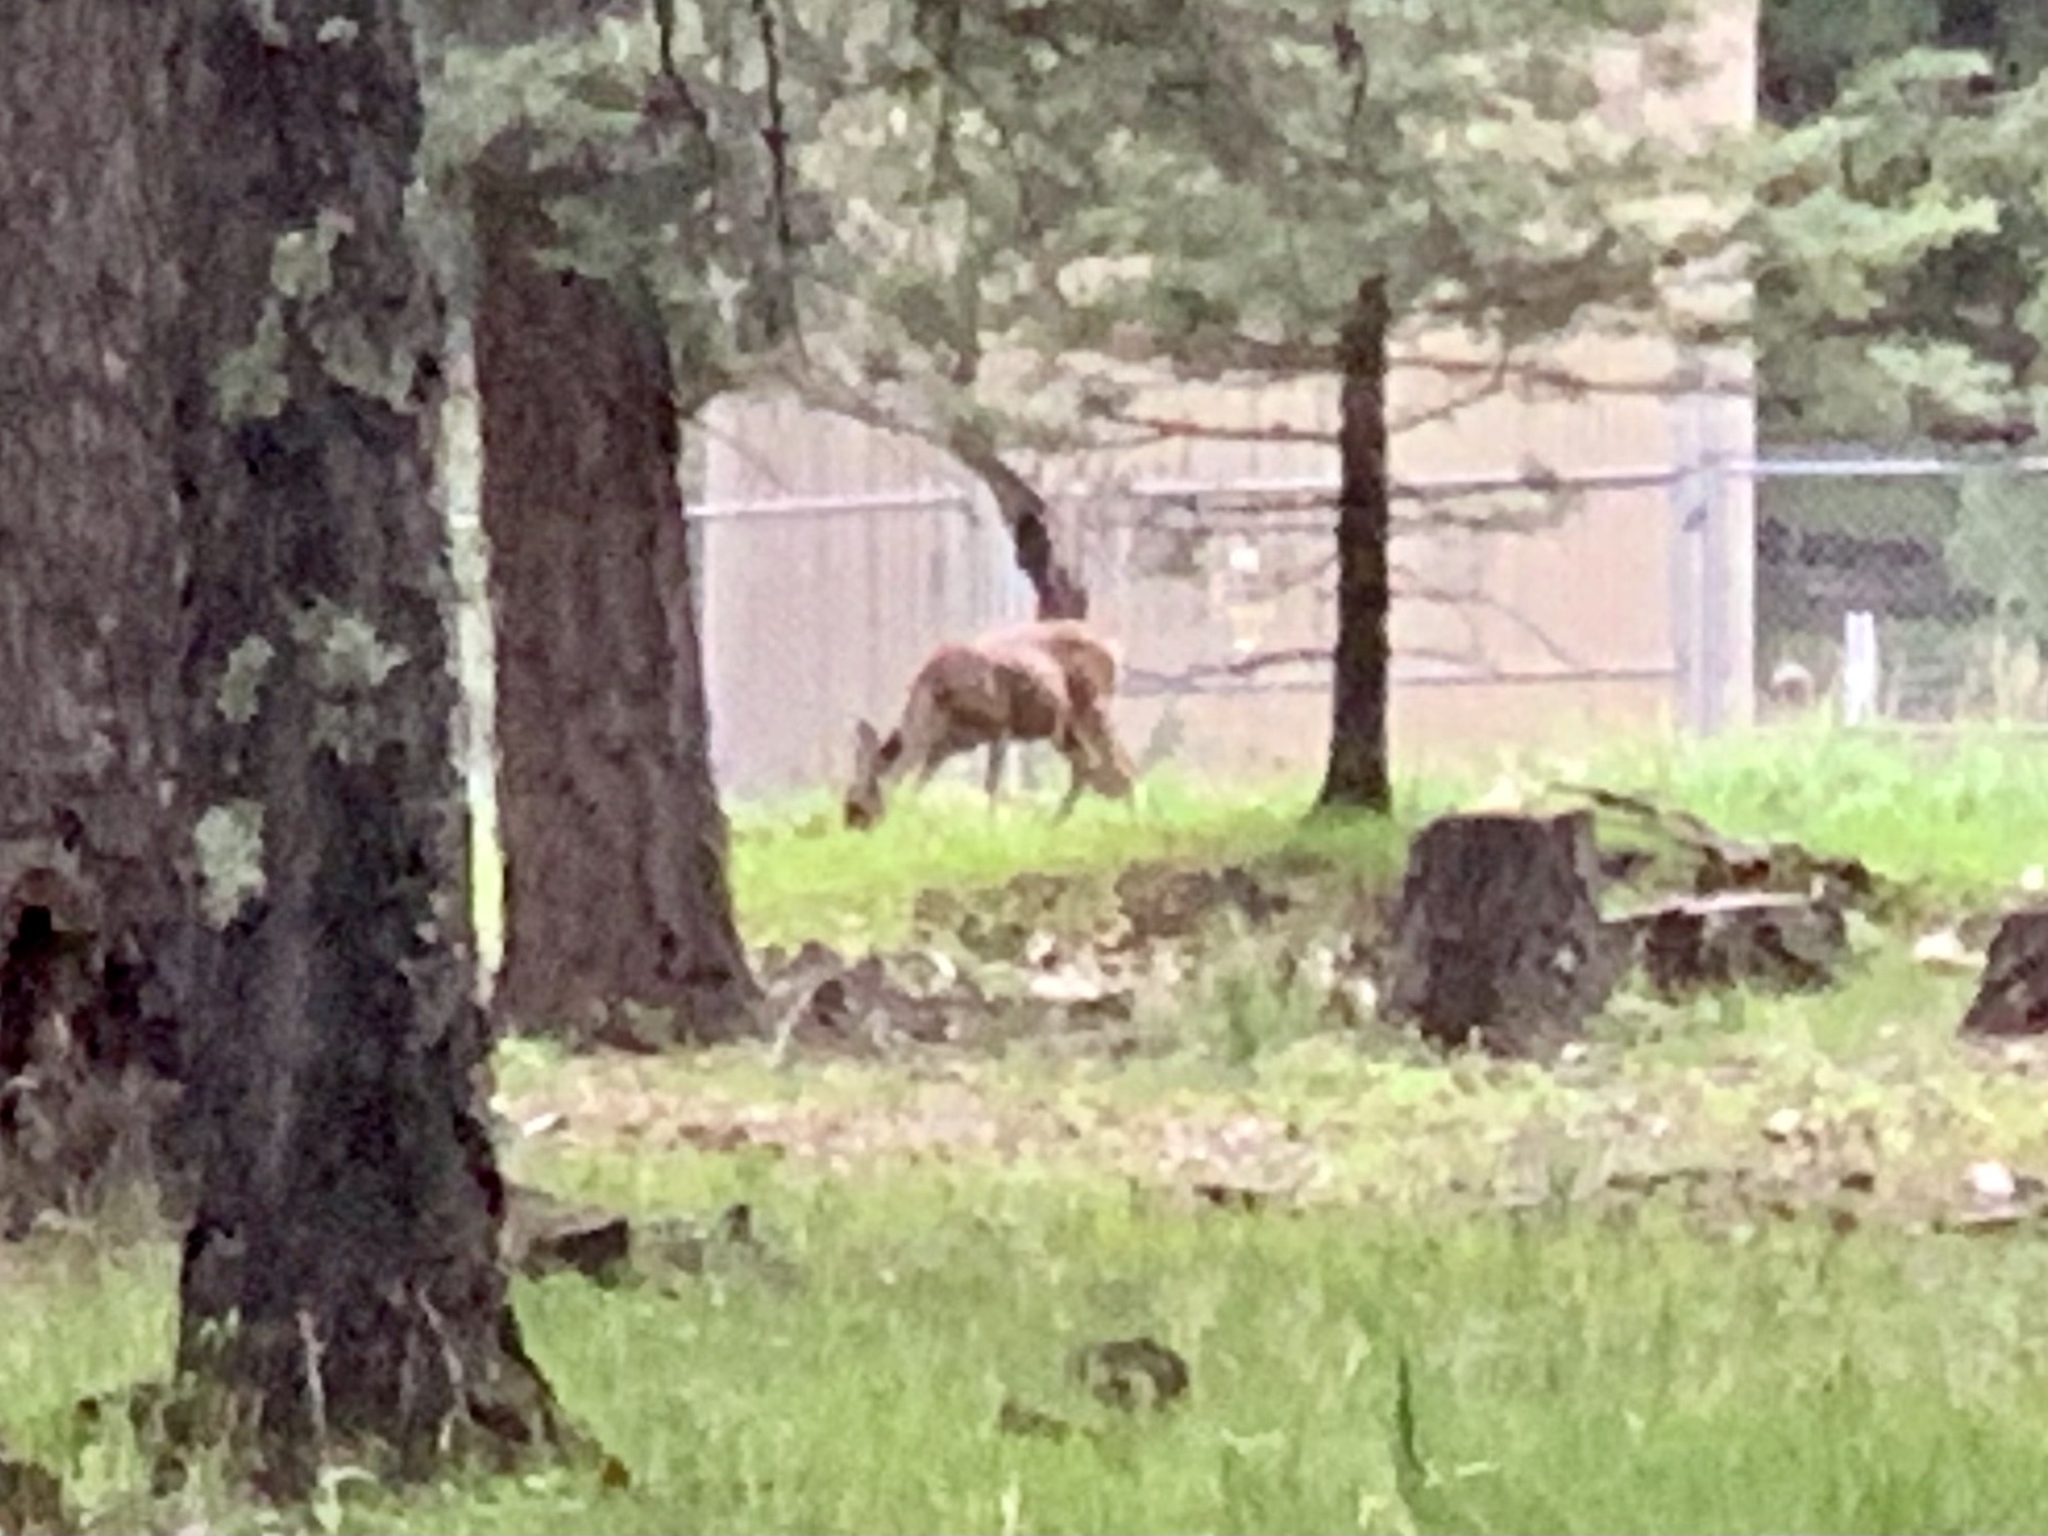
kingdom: Animalia
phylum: Chordata
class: Mammalia
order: Artiodactyla
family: Cervidae
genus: Odocoileus
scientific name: Odocoileus hemionus
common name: Mule deer
